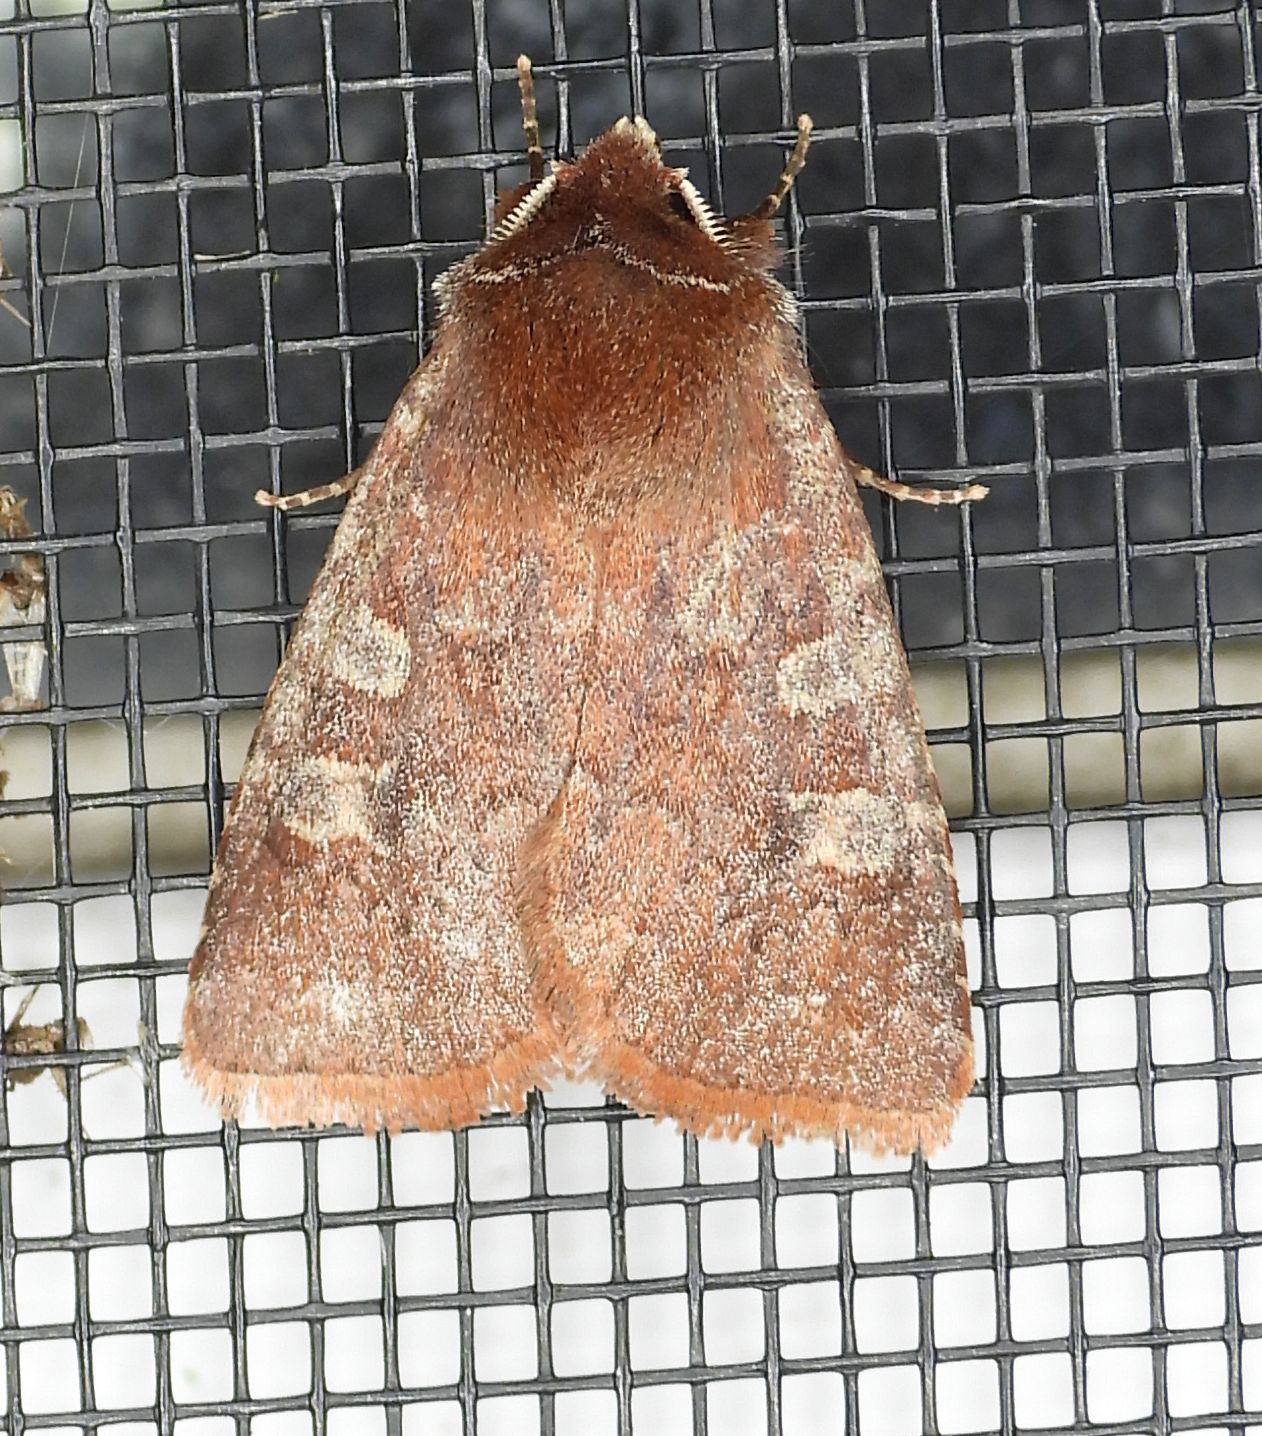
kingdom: Animalia
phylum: Arthropoda
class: Insecta
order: Lepidoptera
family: Noctuidae
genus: Cerastis
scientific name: Cerastis tenebrifera
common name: Reddish speckled dart
